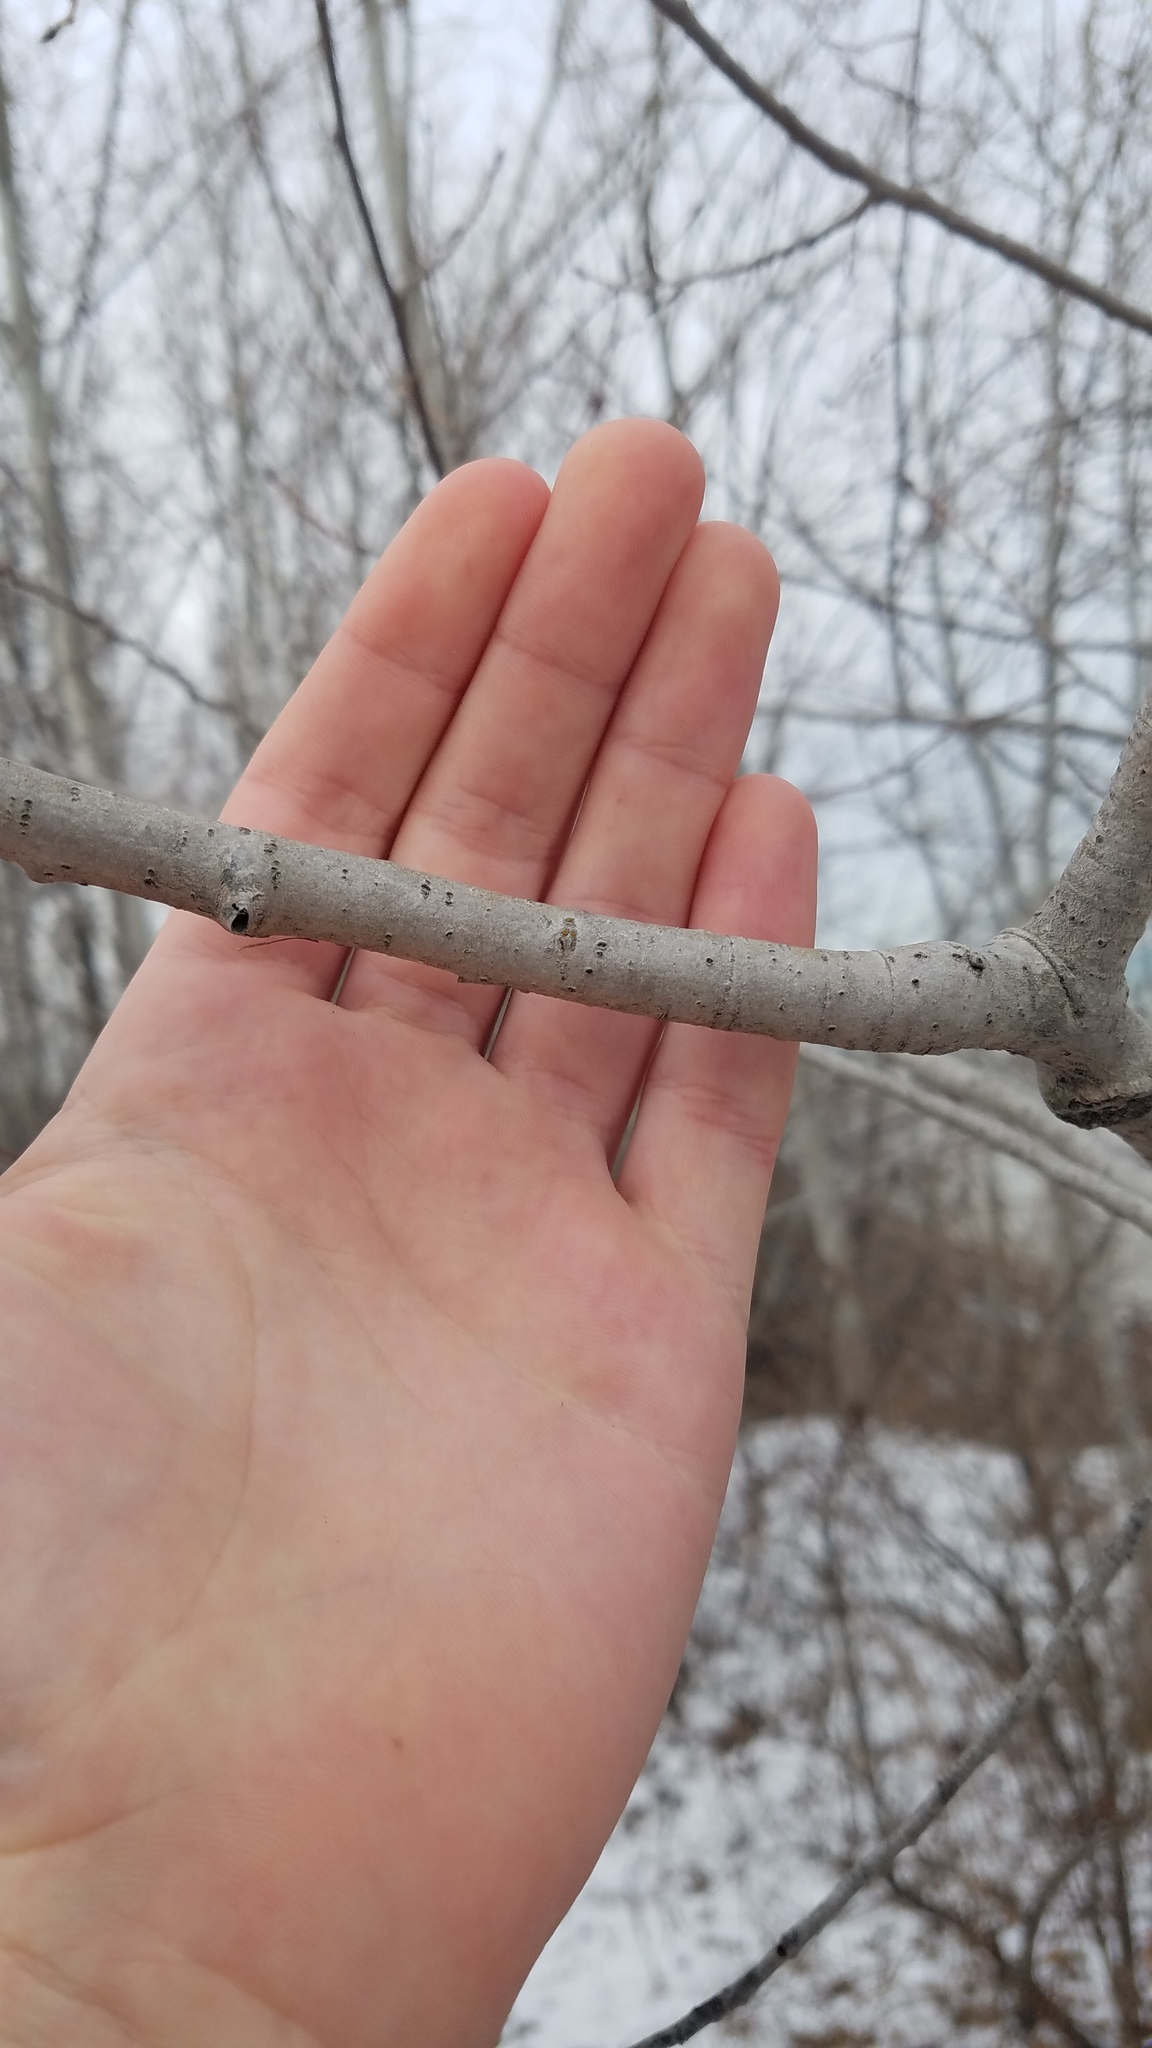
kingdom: Plantae
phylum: Tracheophyta
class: Magnoliopsida
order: Malpighiales
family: Salicaceae
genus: Populus
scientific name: Populus tremuloides
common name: Quaking aspen
